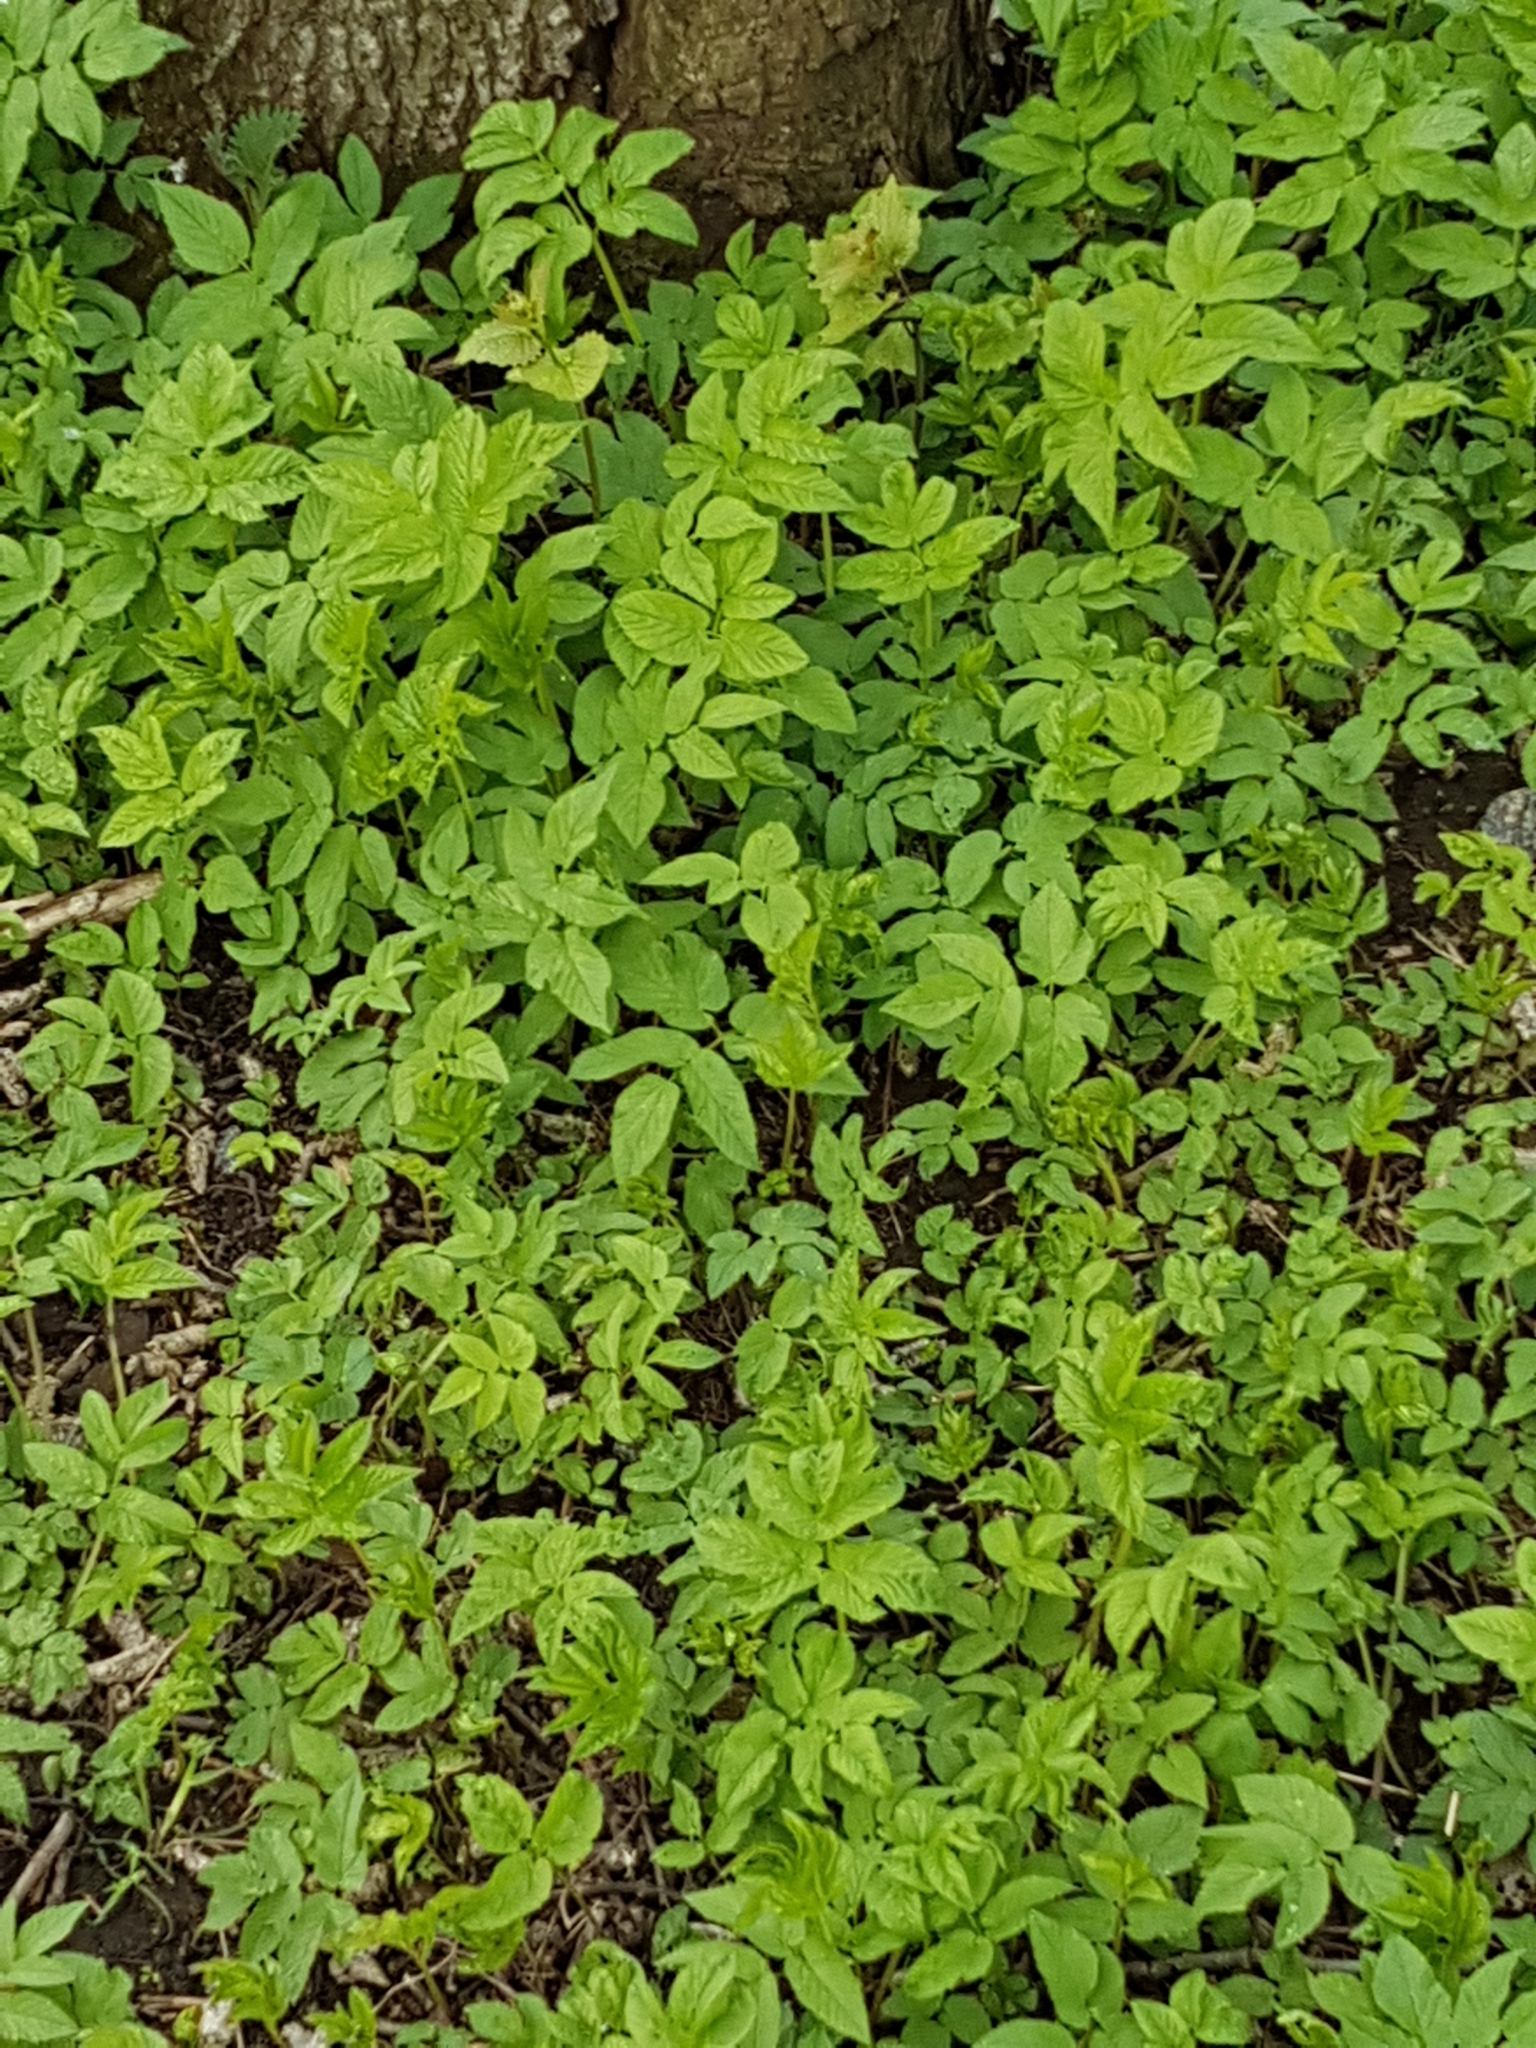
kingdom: Plantae
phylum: Tracheophyta
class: Magnoliopsida
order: Apiales
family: Apiaceae
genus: Aegopodium
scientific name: Aegopodium podagraria
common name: Ground-elder
